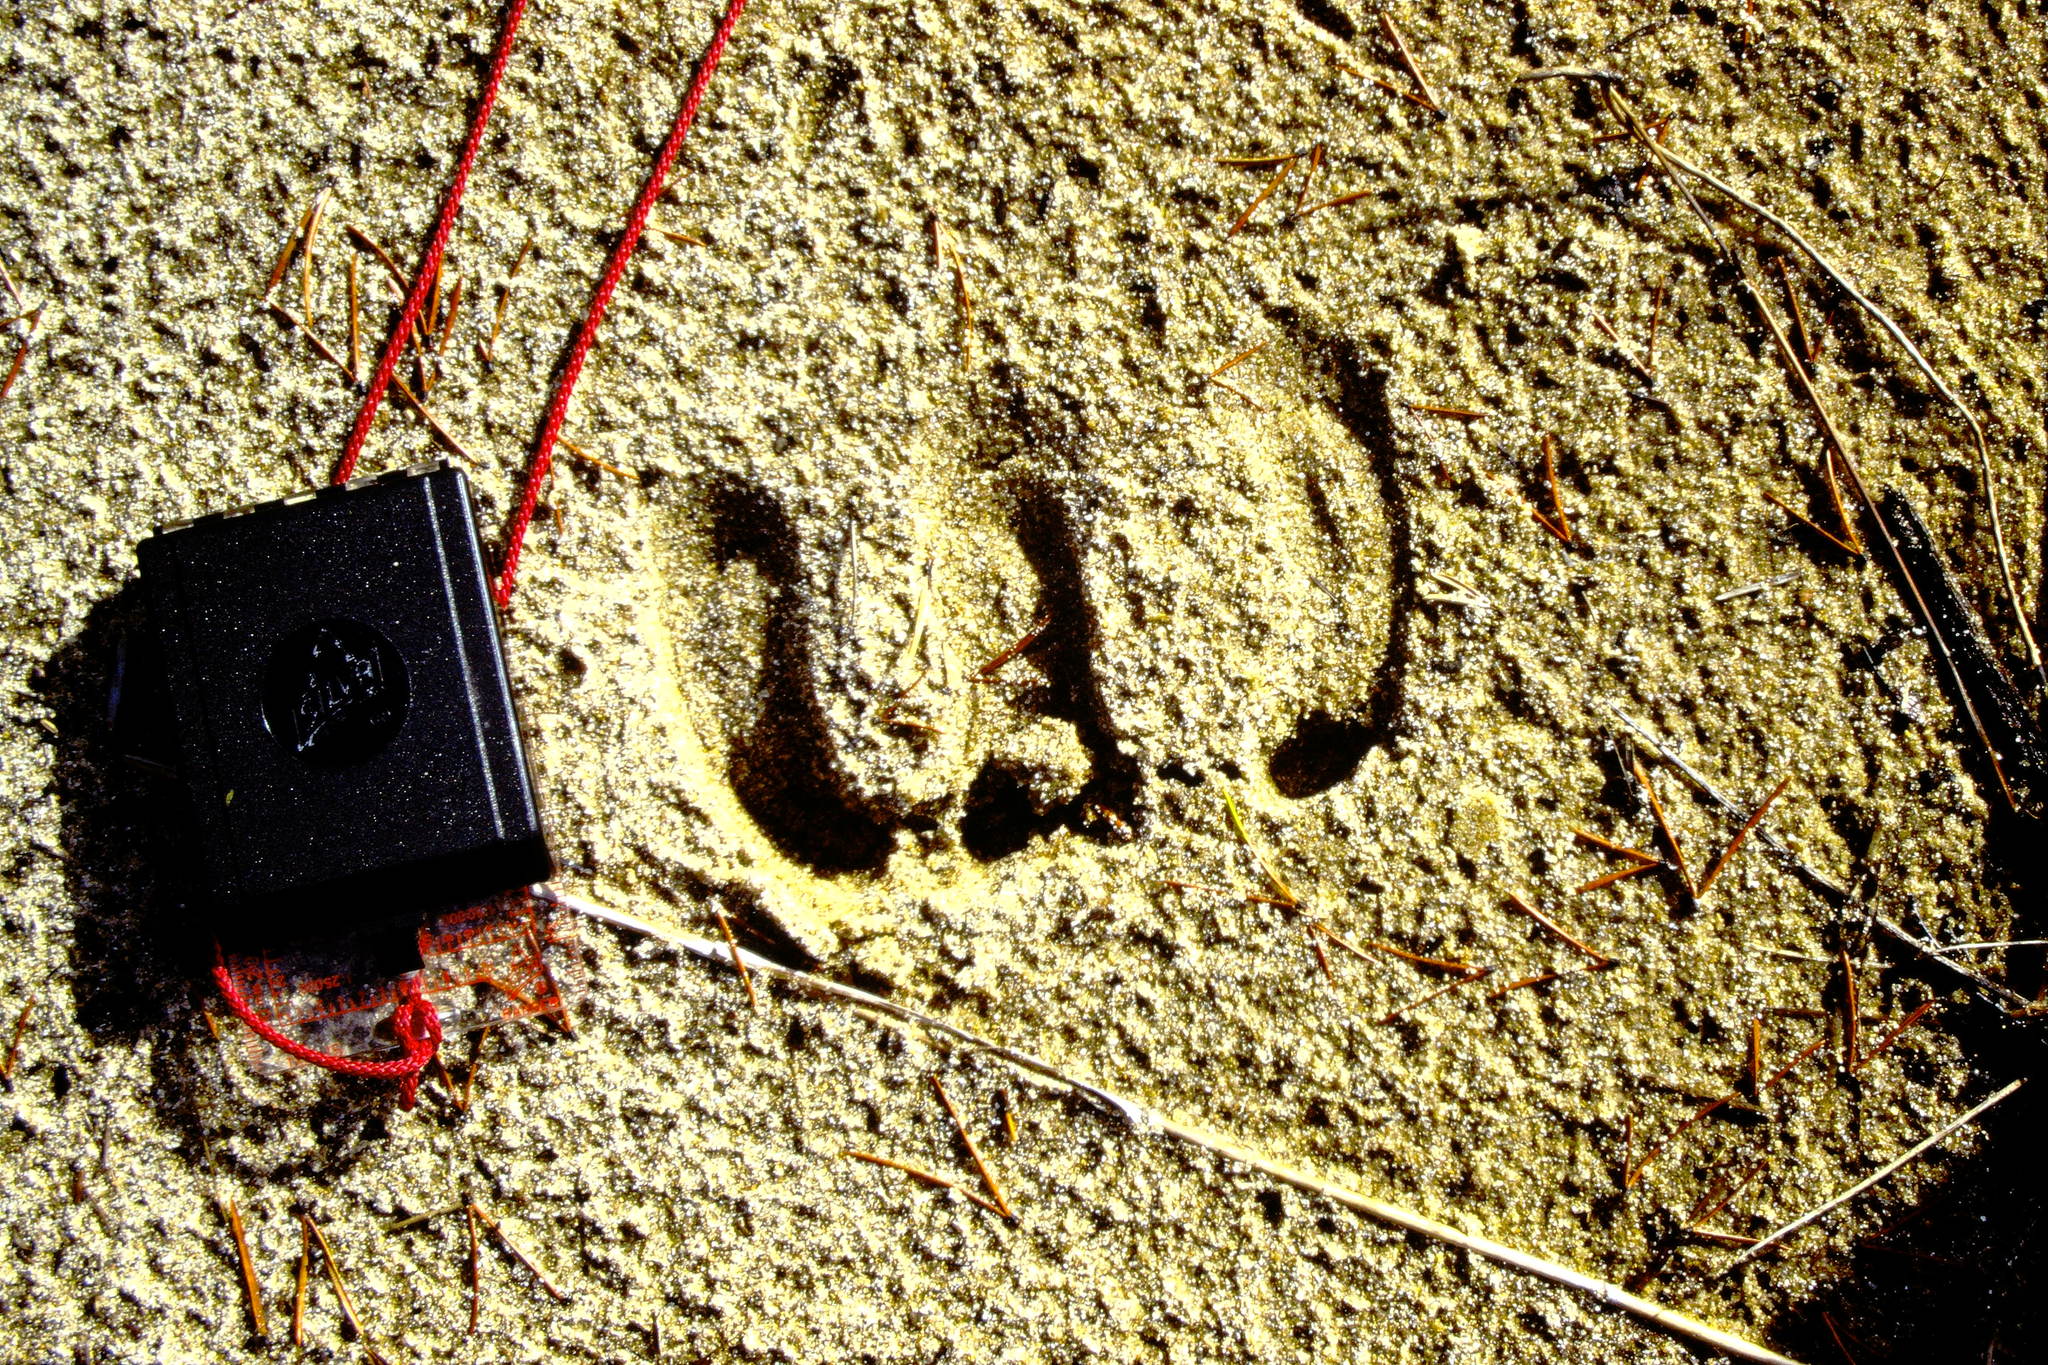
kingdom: Animalia
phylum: Chordata
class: Mammalia
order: Artiodactyla
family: Cervidae
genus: Rangifer
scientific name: Rangifer tarandus
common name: Reindeer
